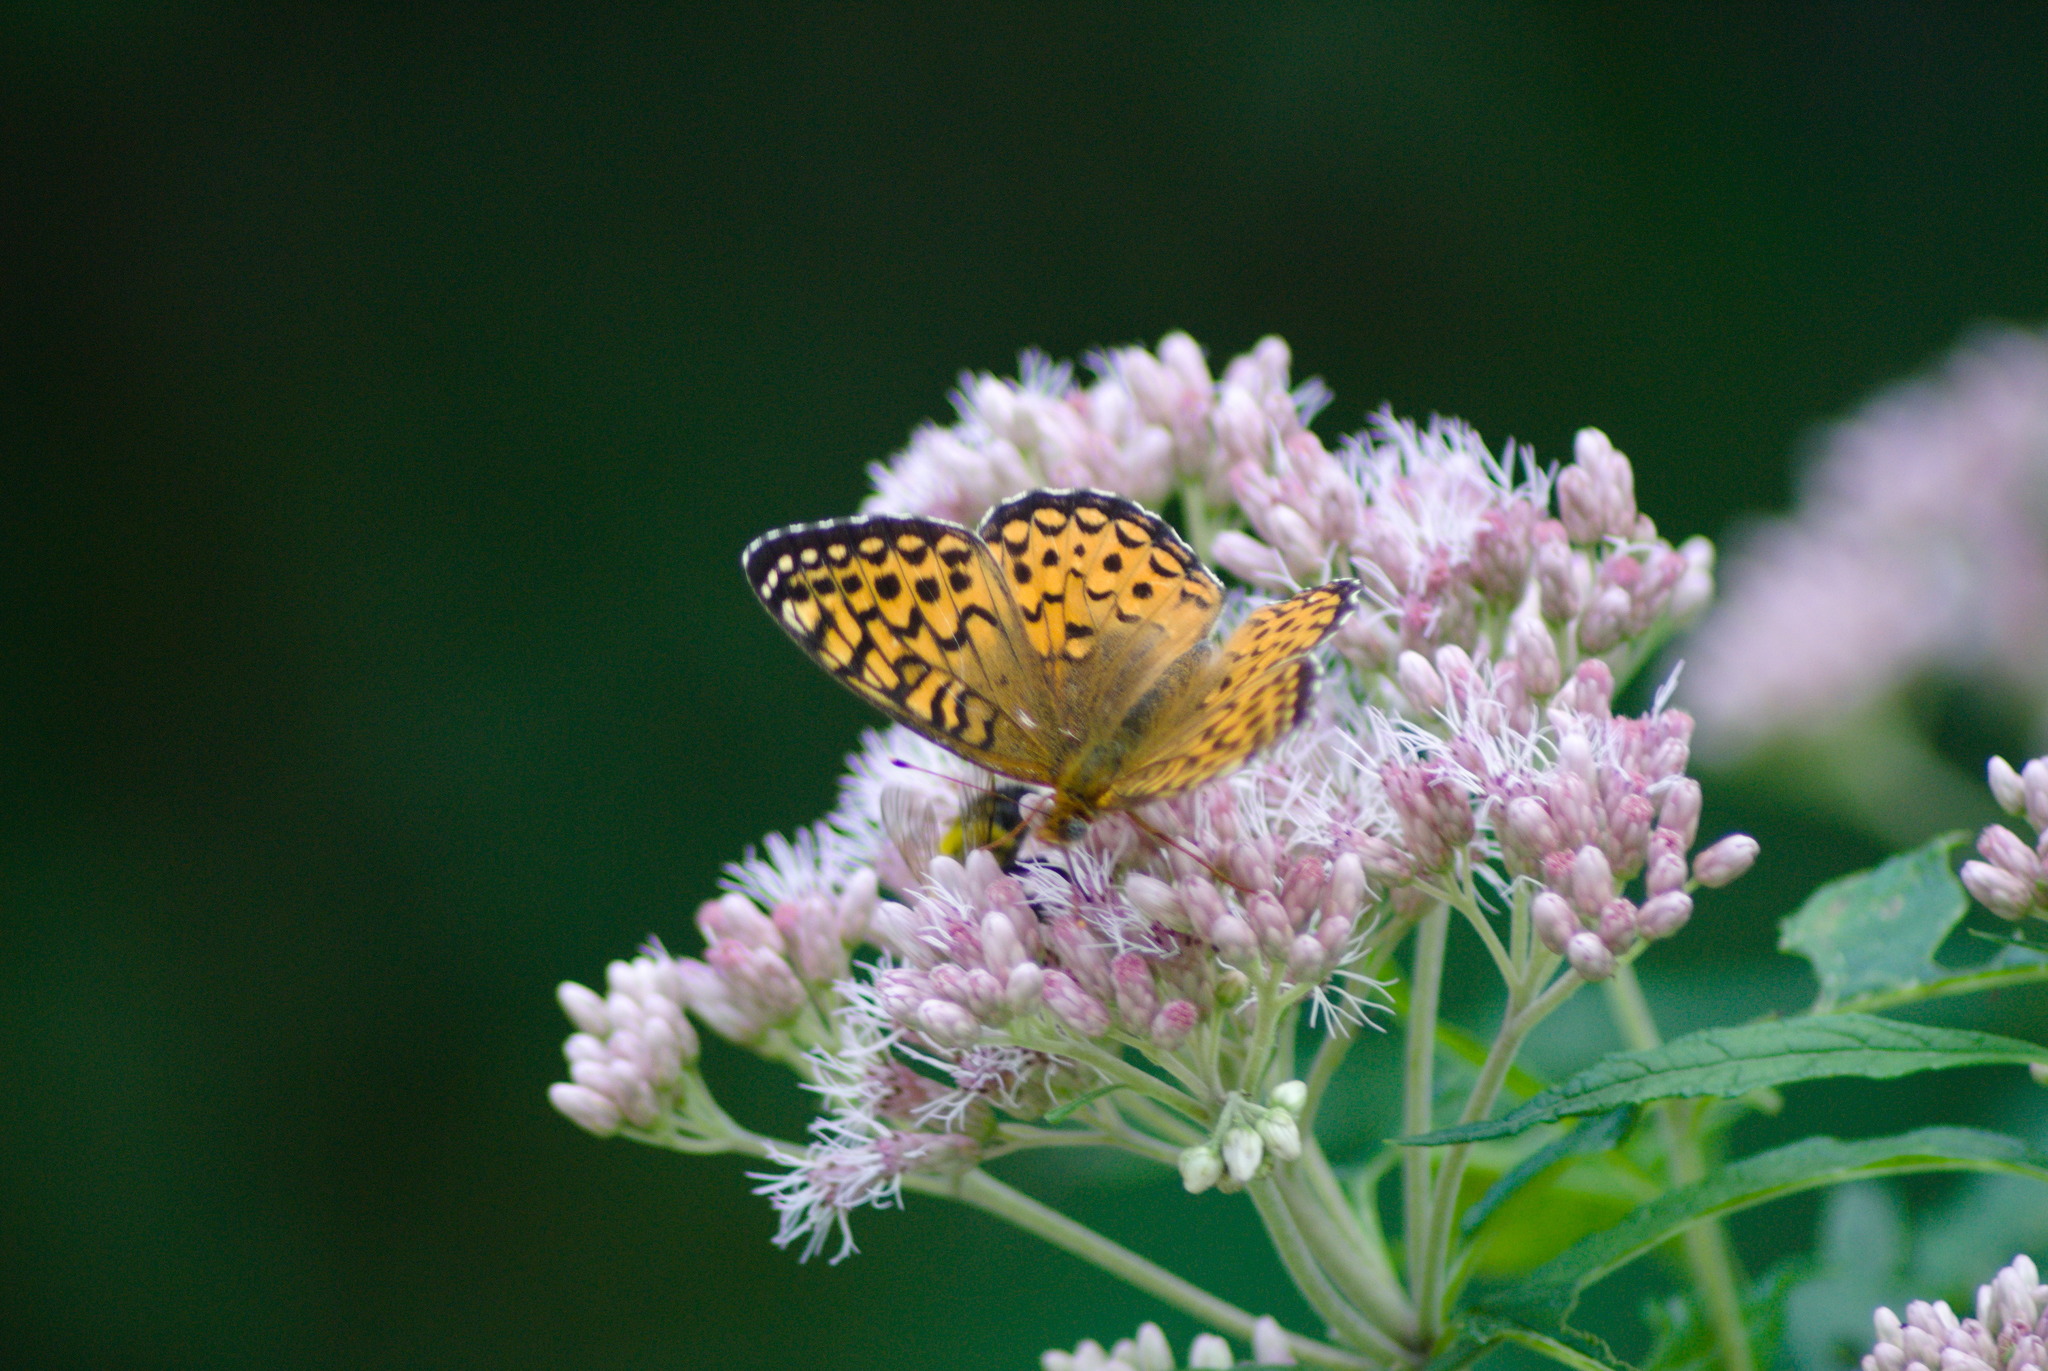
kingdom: Animalia
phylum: Arthropoda
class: Insecta
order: Lepidoptera
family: Nymphalidae
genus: Speyeria
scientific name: Speyeria atlantis
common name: Atlantis fritillary
